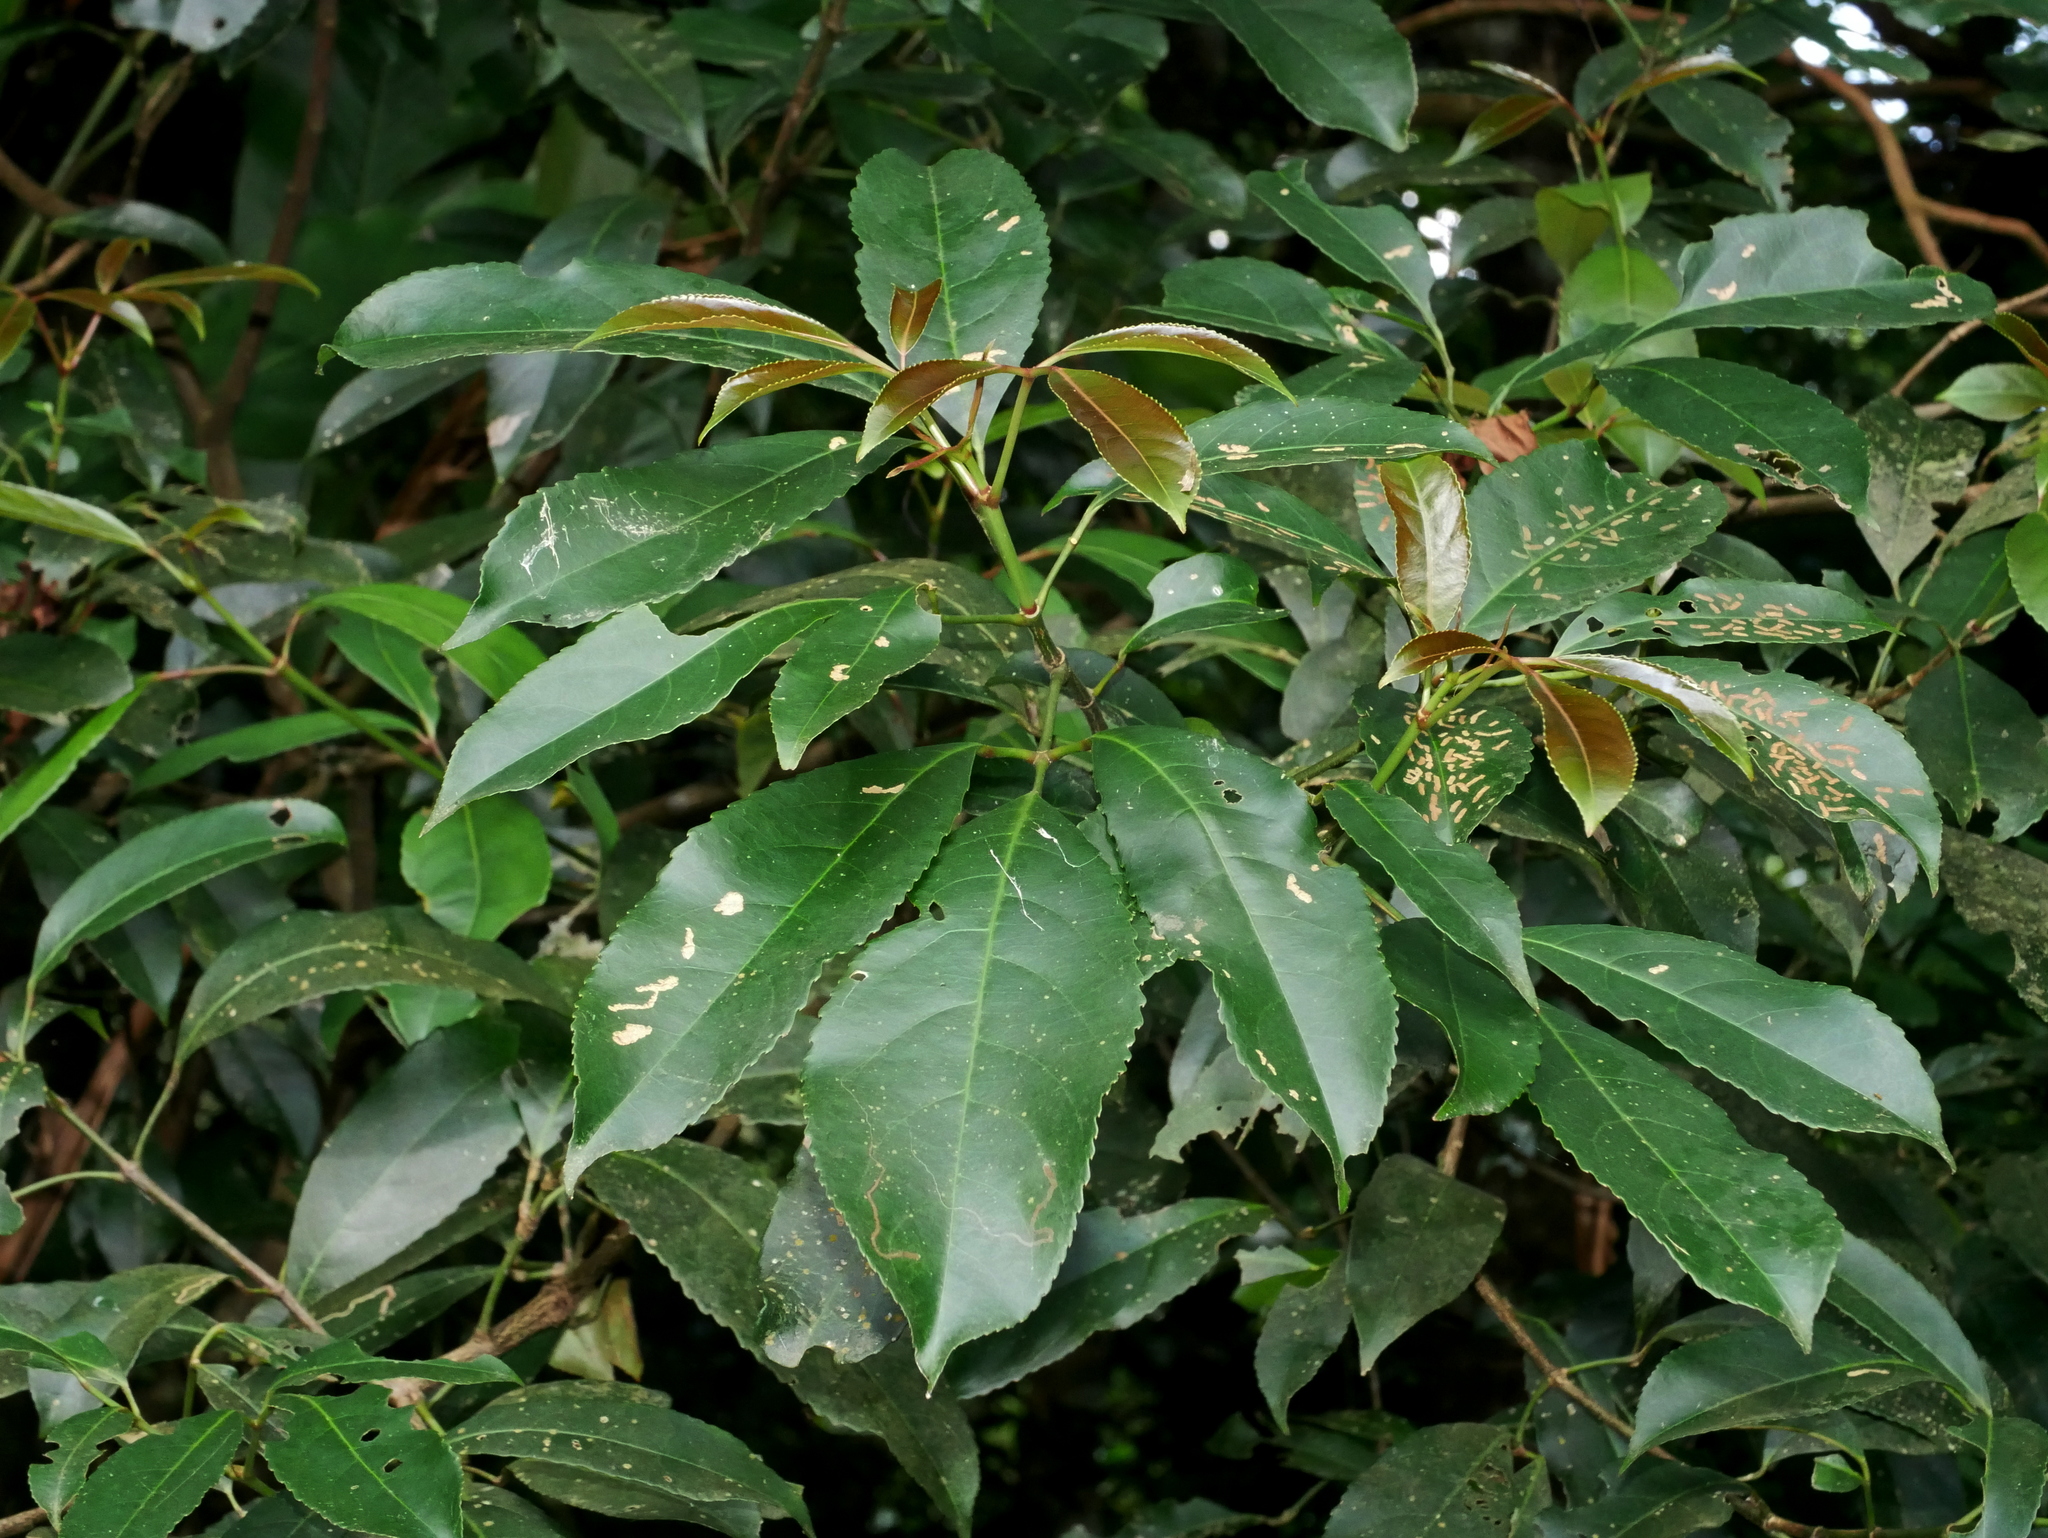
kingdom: Plantae
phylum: Tracheophyta
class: Magnoliopsida
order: Crossosomatales
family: Staphyleaceae
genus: Turpinia
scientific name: Turpinia ternata
